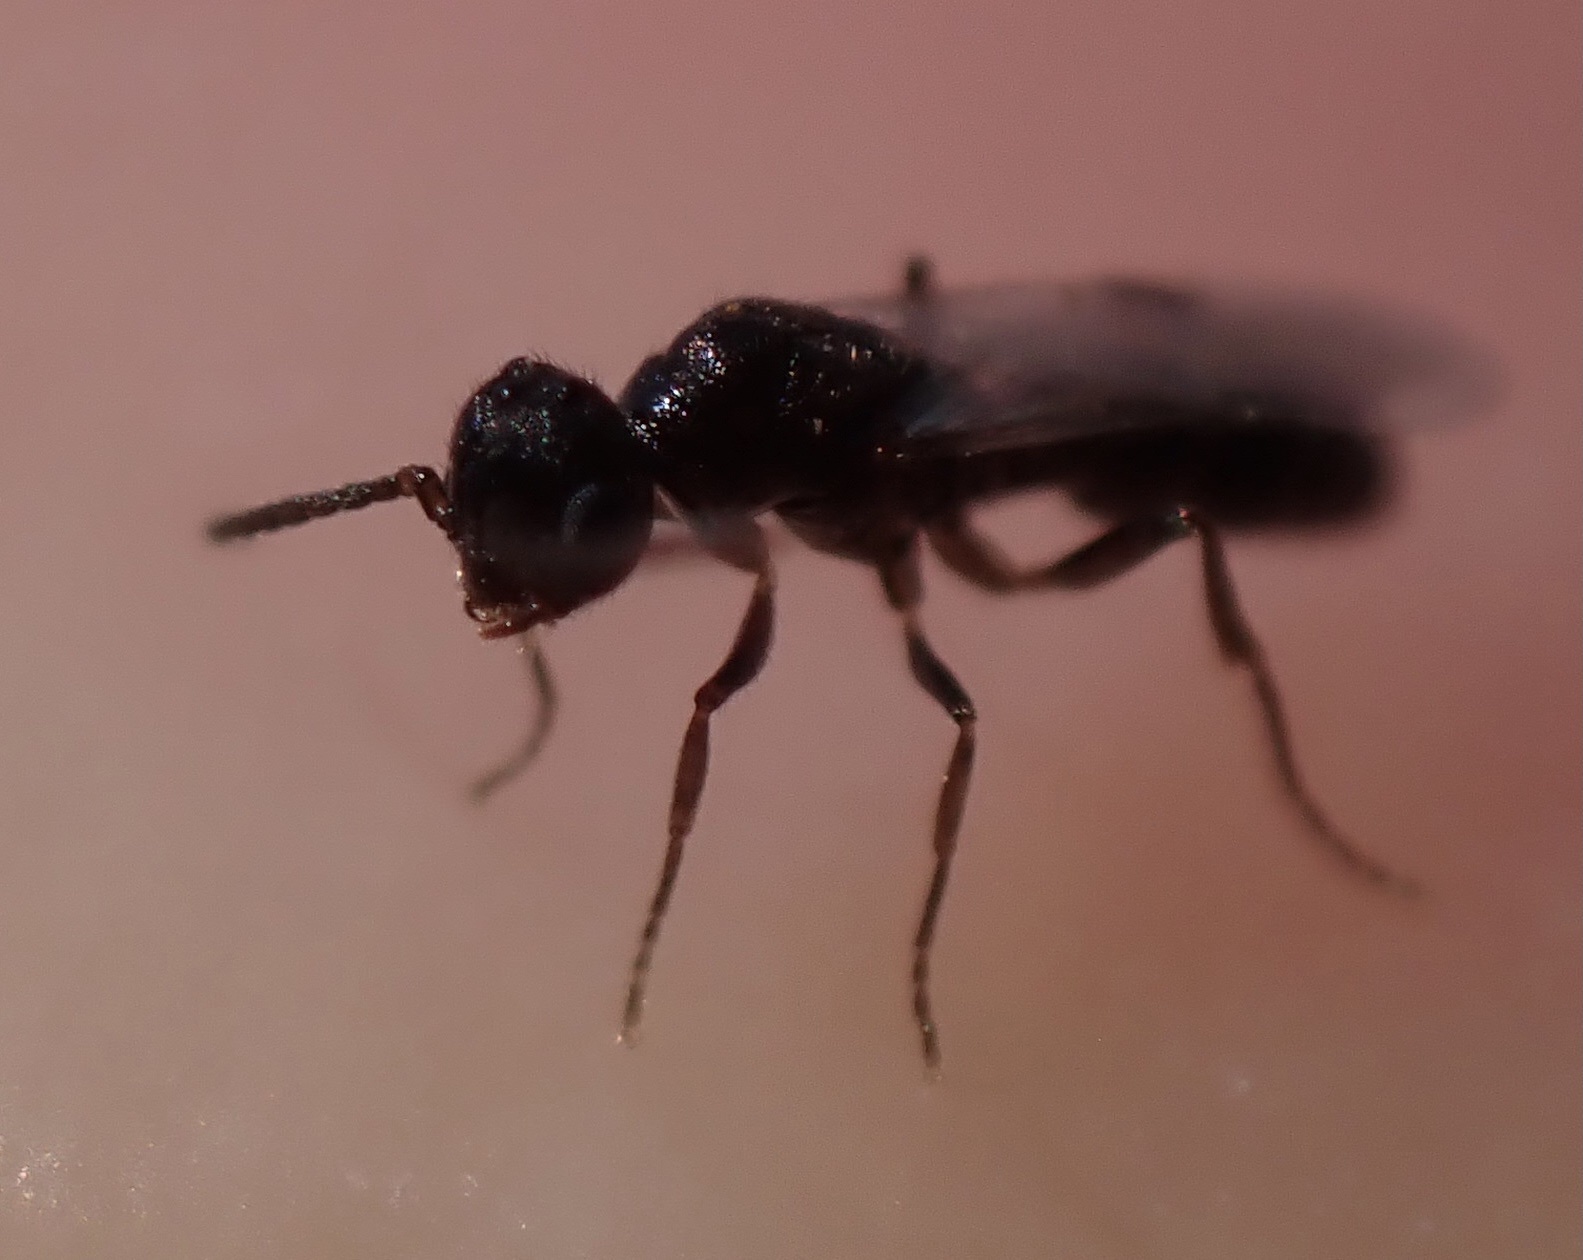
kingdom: Animalia
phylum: Arthropoda
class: Insecta
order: Hymenoptera
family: Formicidae
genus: Amblyopone
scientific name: Amblyopone denticulata
